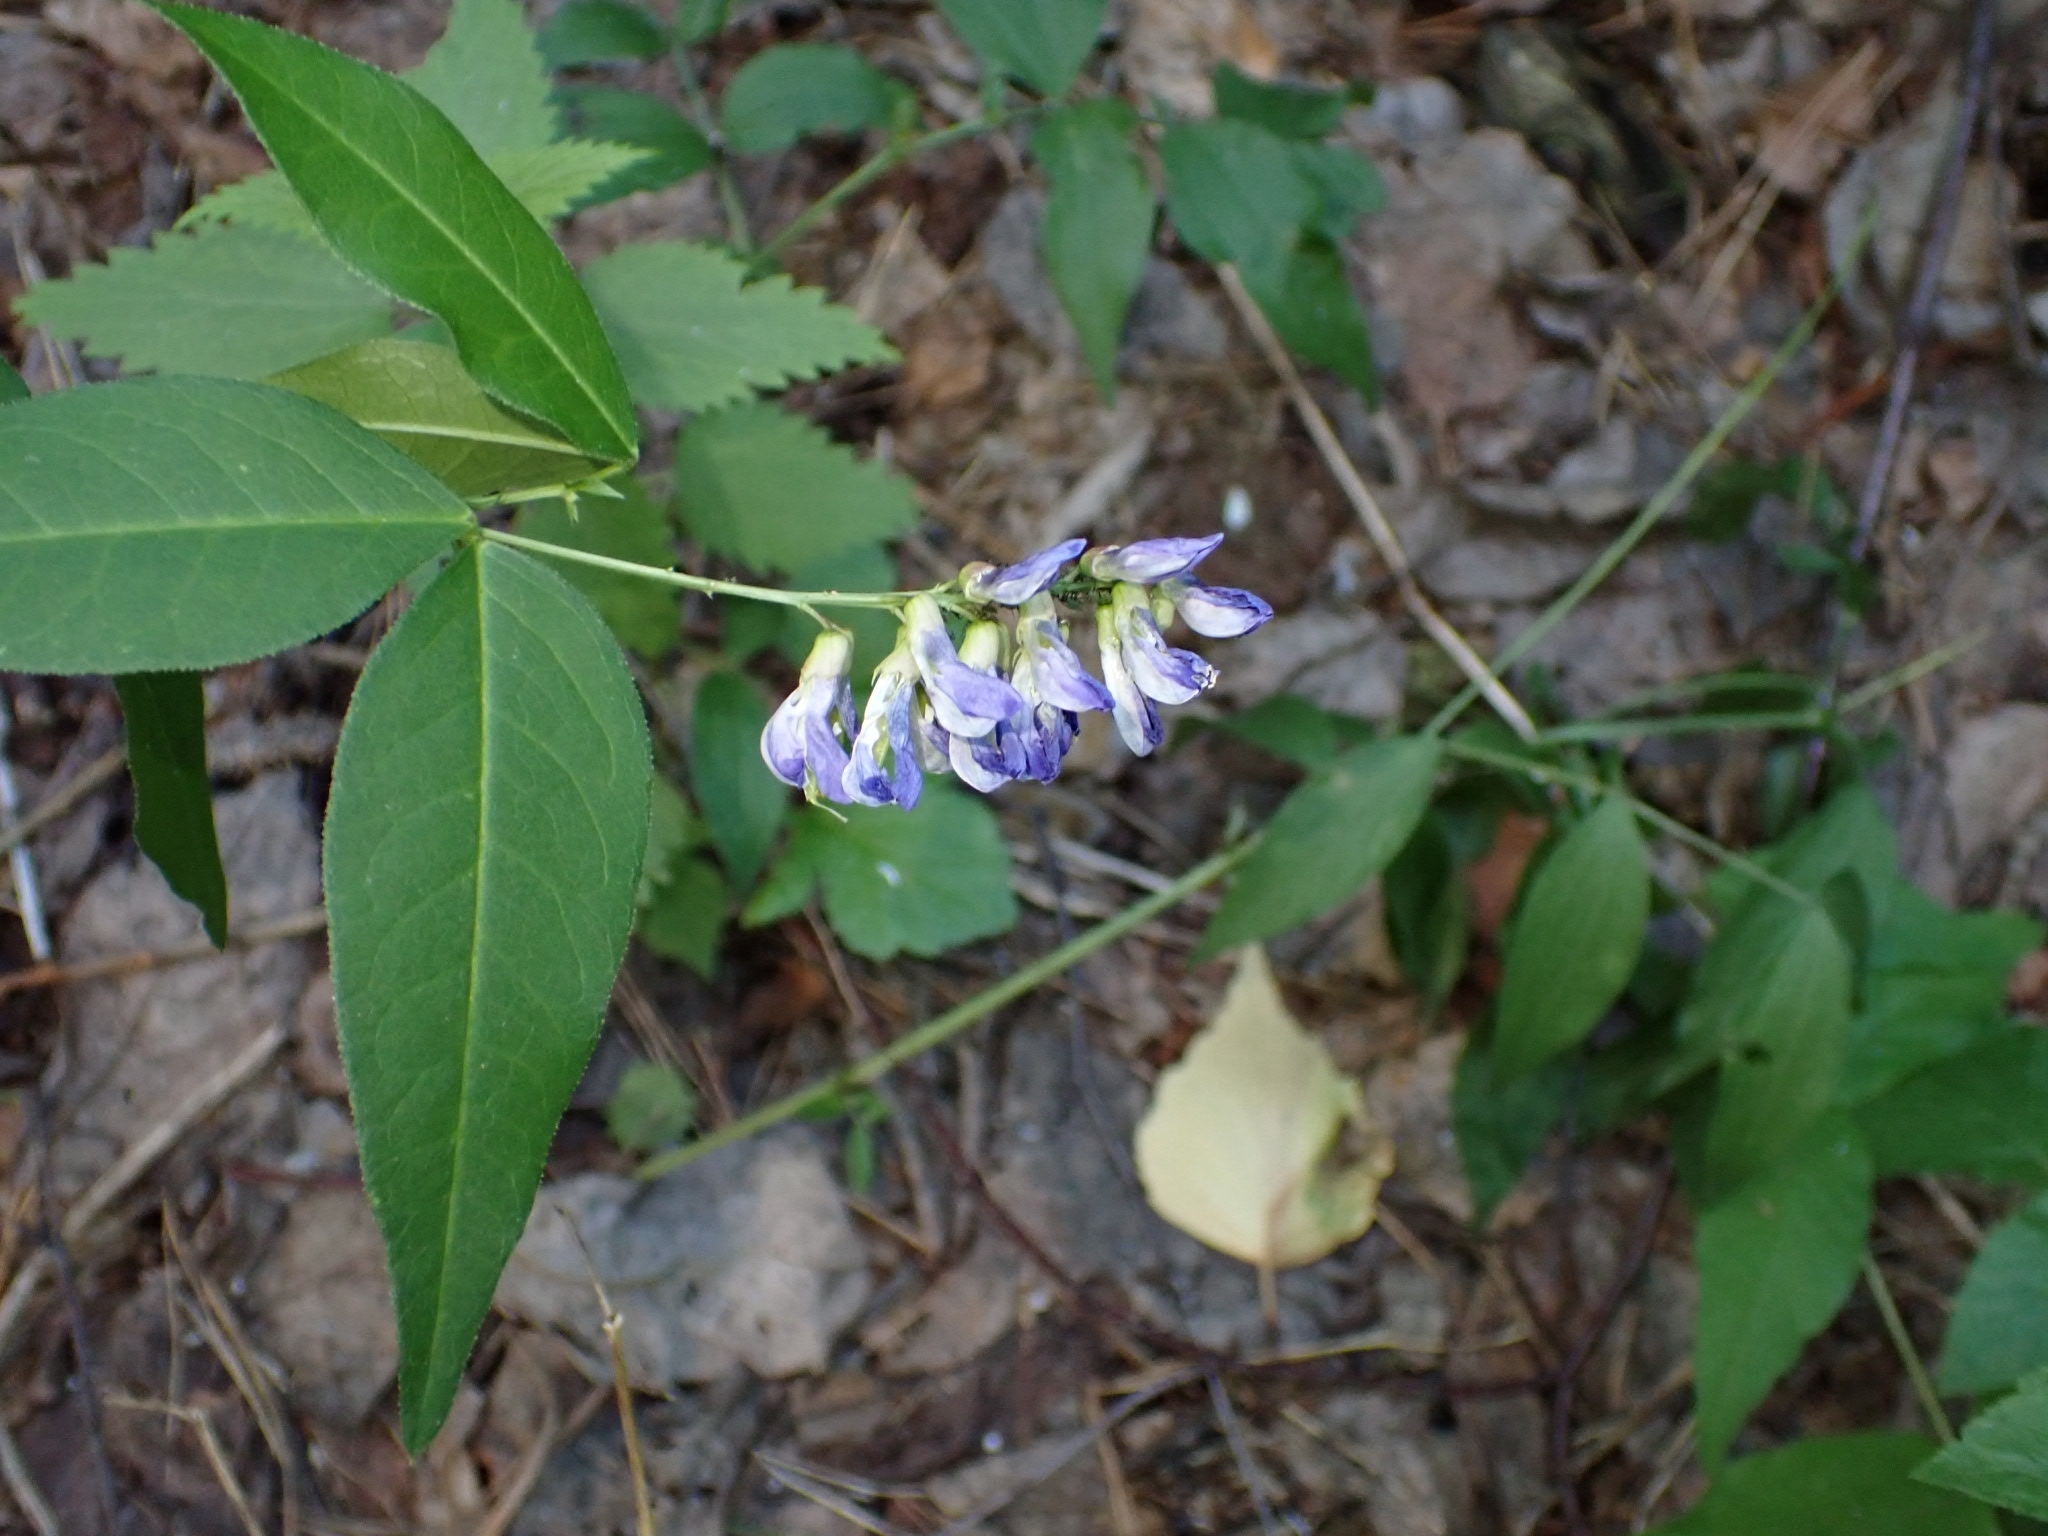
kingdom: Plantae
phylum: Tracheophyta
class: Magnoliopsida
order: Fabales
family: Fabaceae
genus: Vicia
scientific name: Vicia unijuga
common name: Two-leaf vetch
